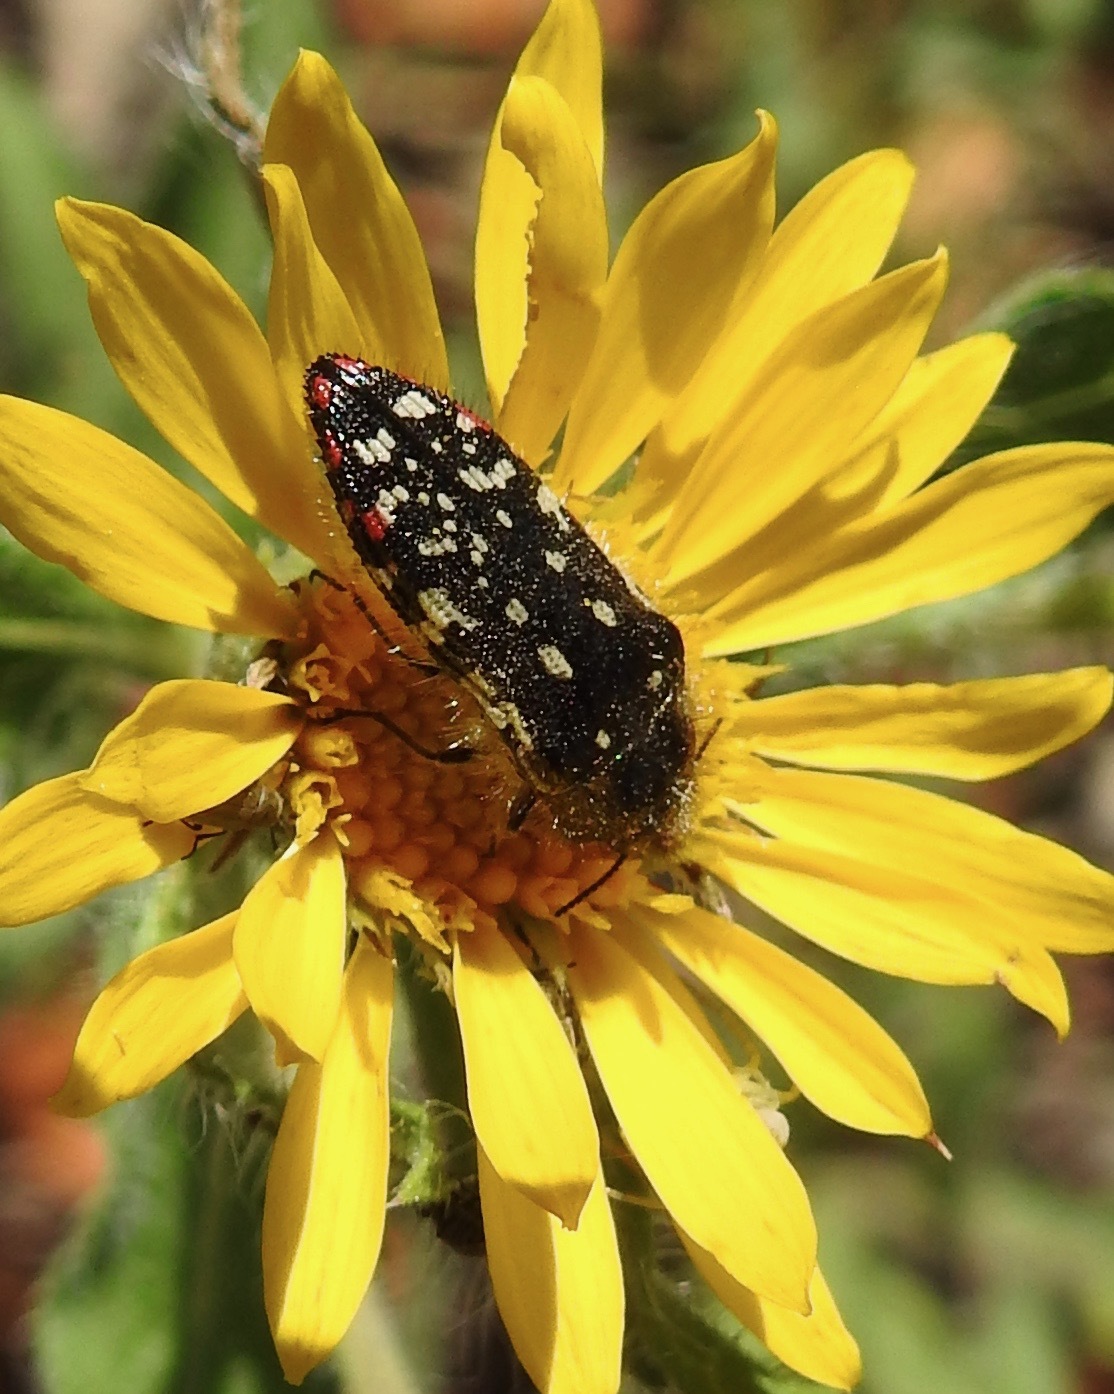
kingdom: Animalia
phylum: Arthropoda
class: Insecta
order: Coleoptera
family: Buprestidae
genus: Acmaeodera
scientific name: Acmaeodera rubronotata
